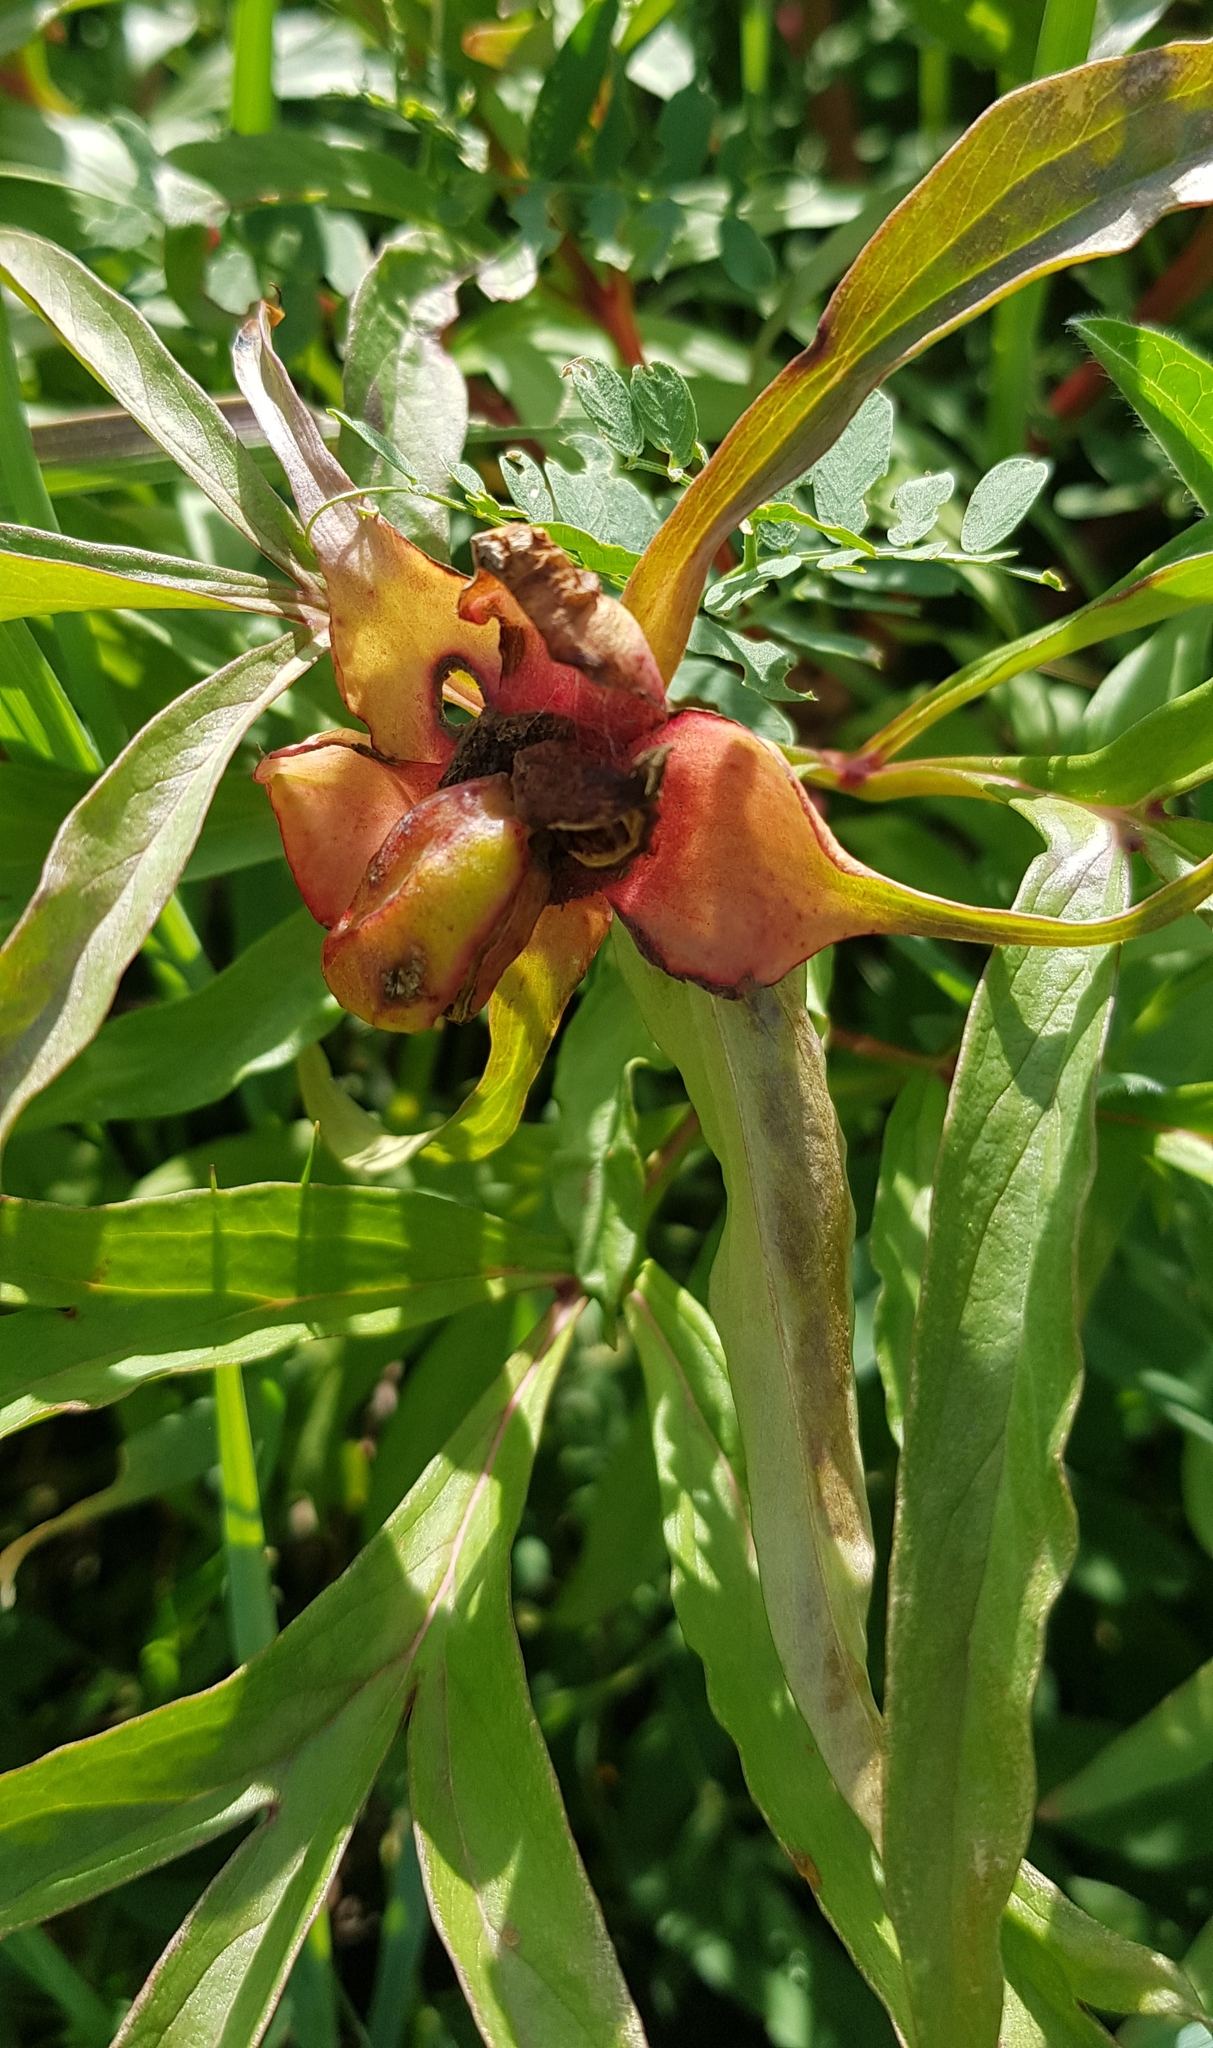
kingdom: Plantae
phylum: Tracheophyta
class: Magnoliopsida
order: Saxifragales
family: Paeoniaceae
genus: Paeonia
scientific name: Paeonia anomala
